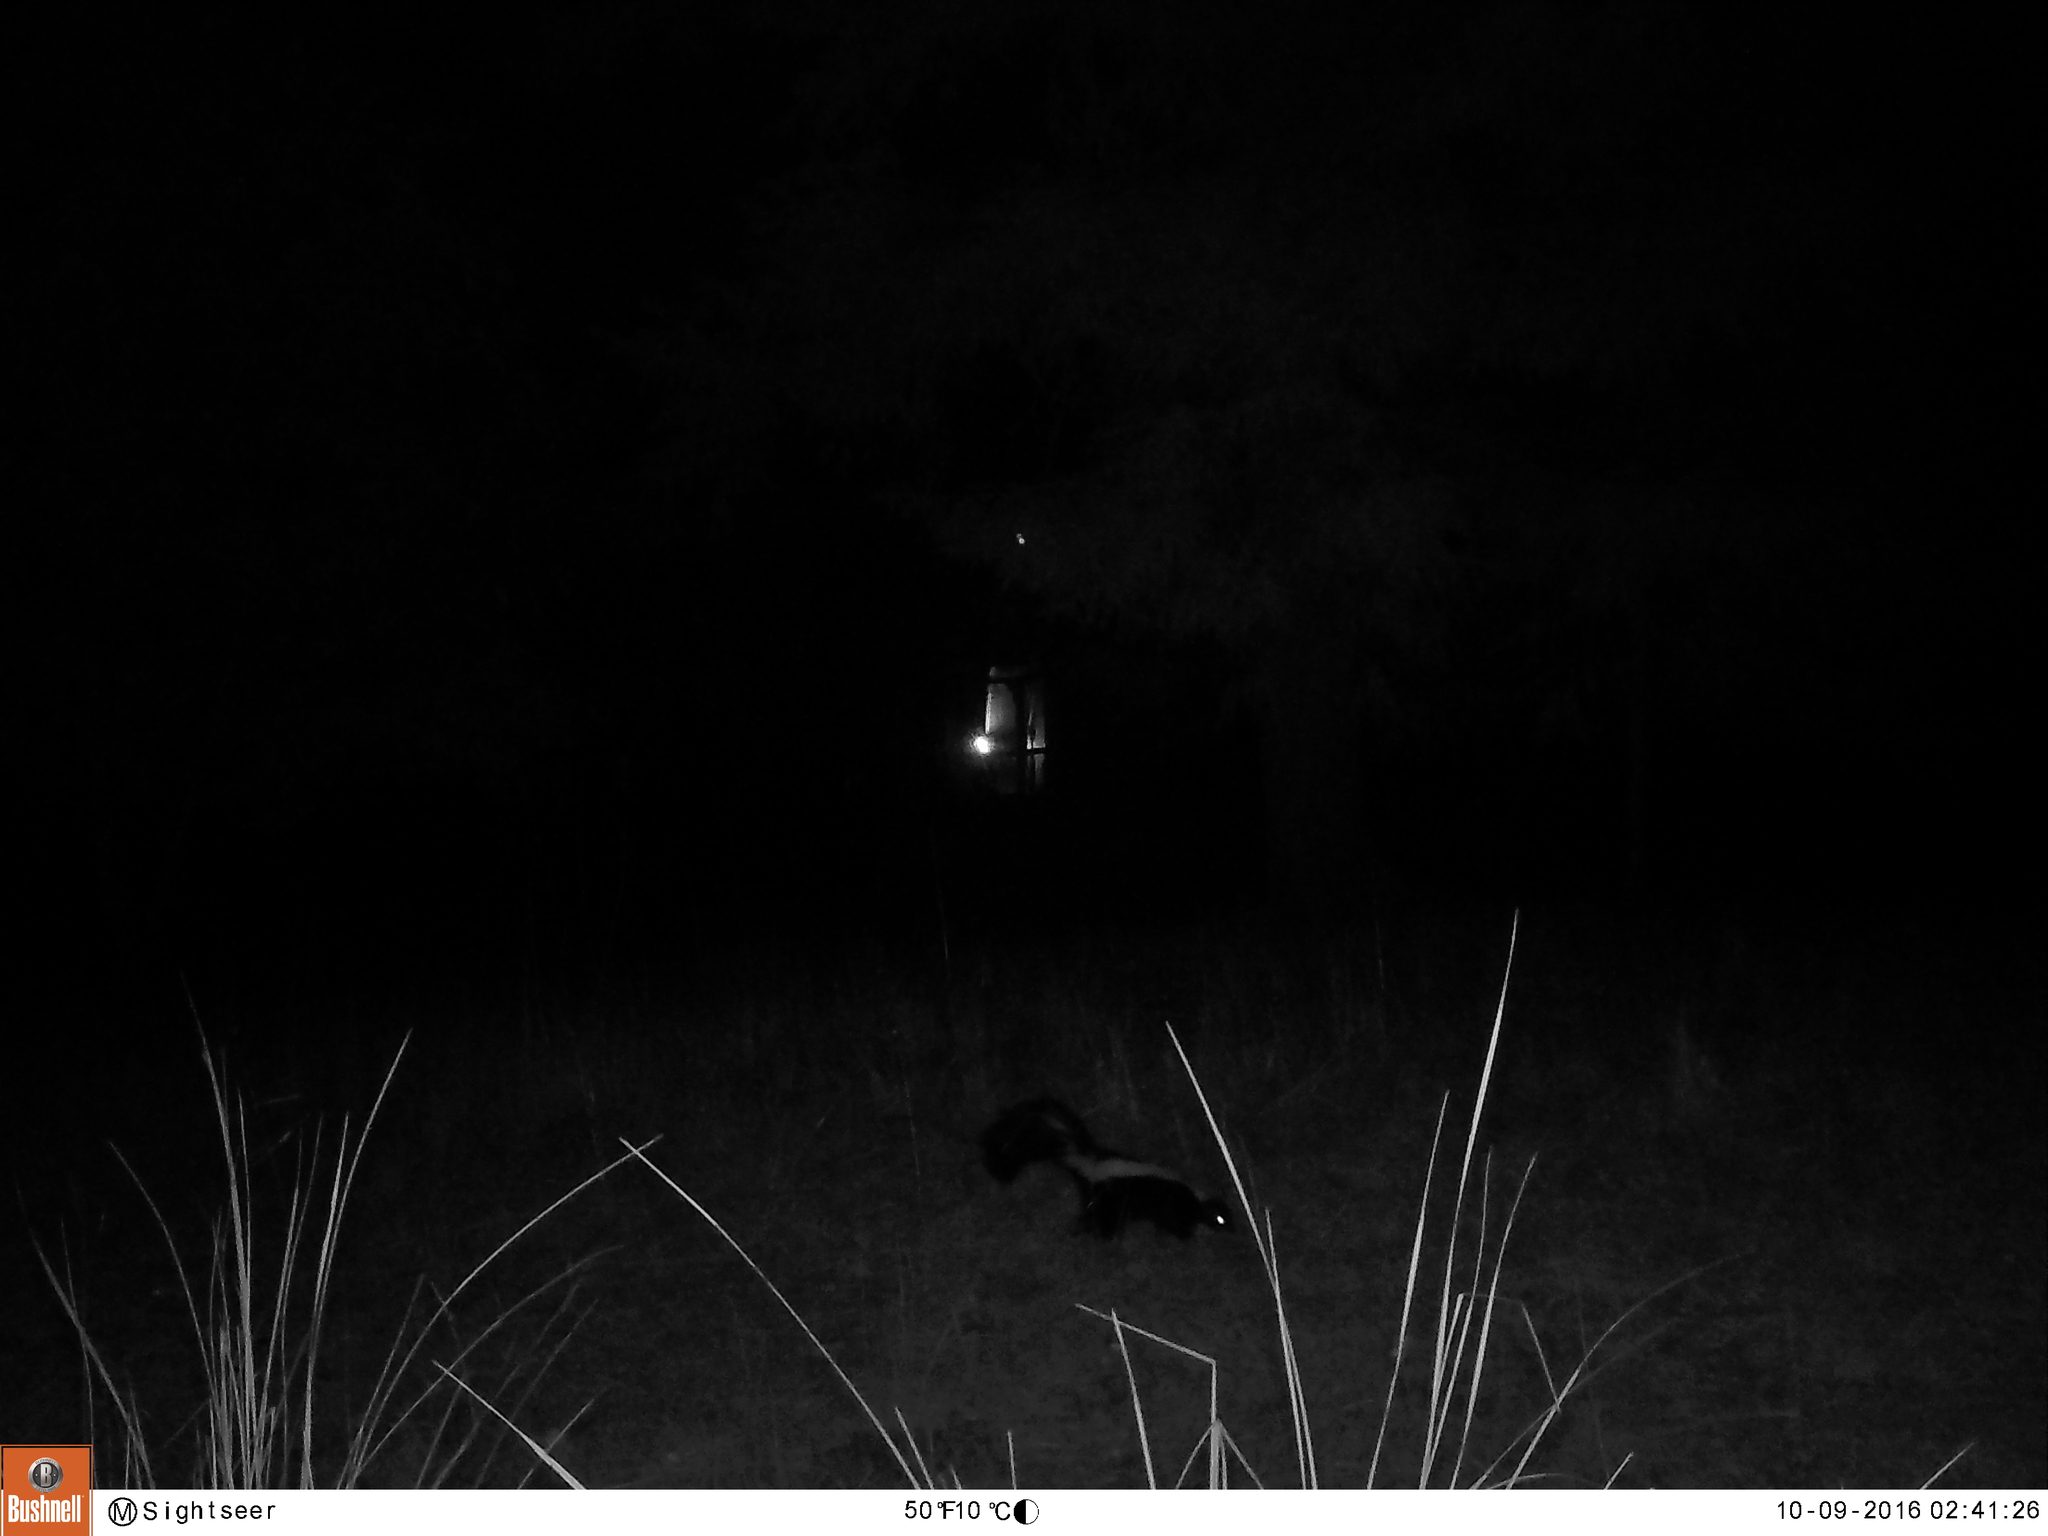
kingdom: Animalia
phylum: Chordata
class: Mammalia
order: Carnivora
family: Mephitidae
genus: Mephitis
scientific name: Mephitis mephitis
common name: Striped skunk
